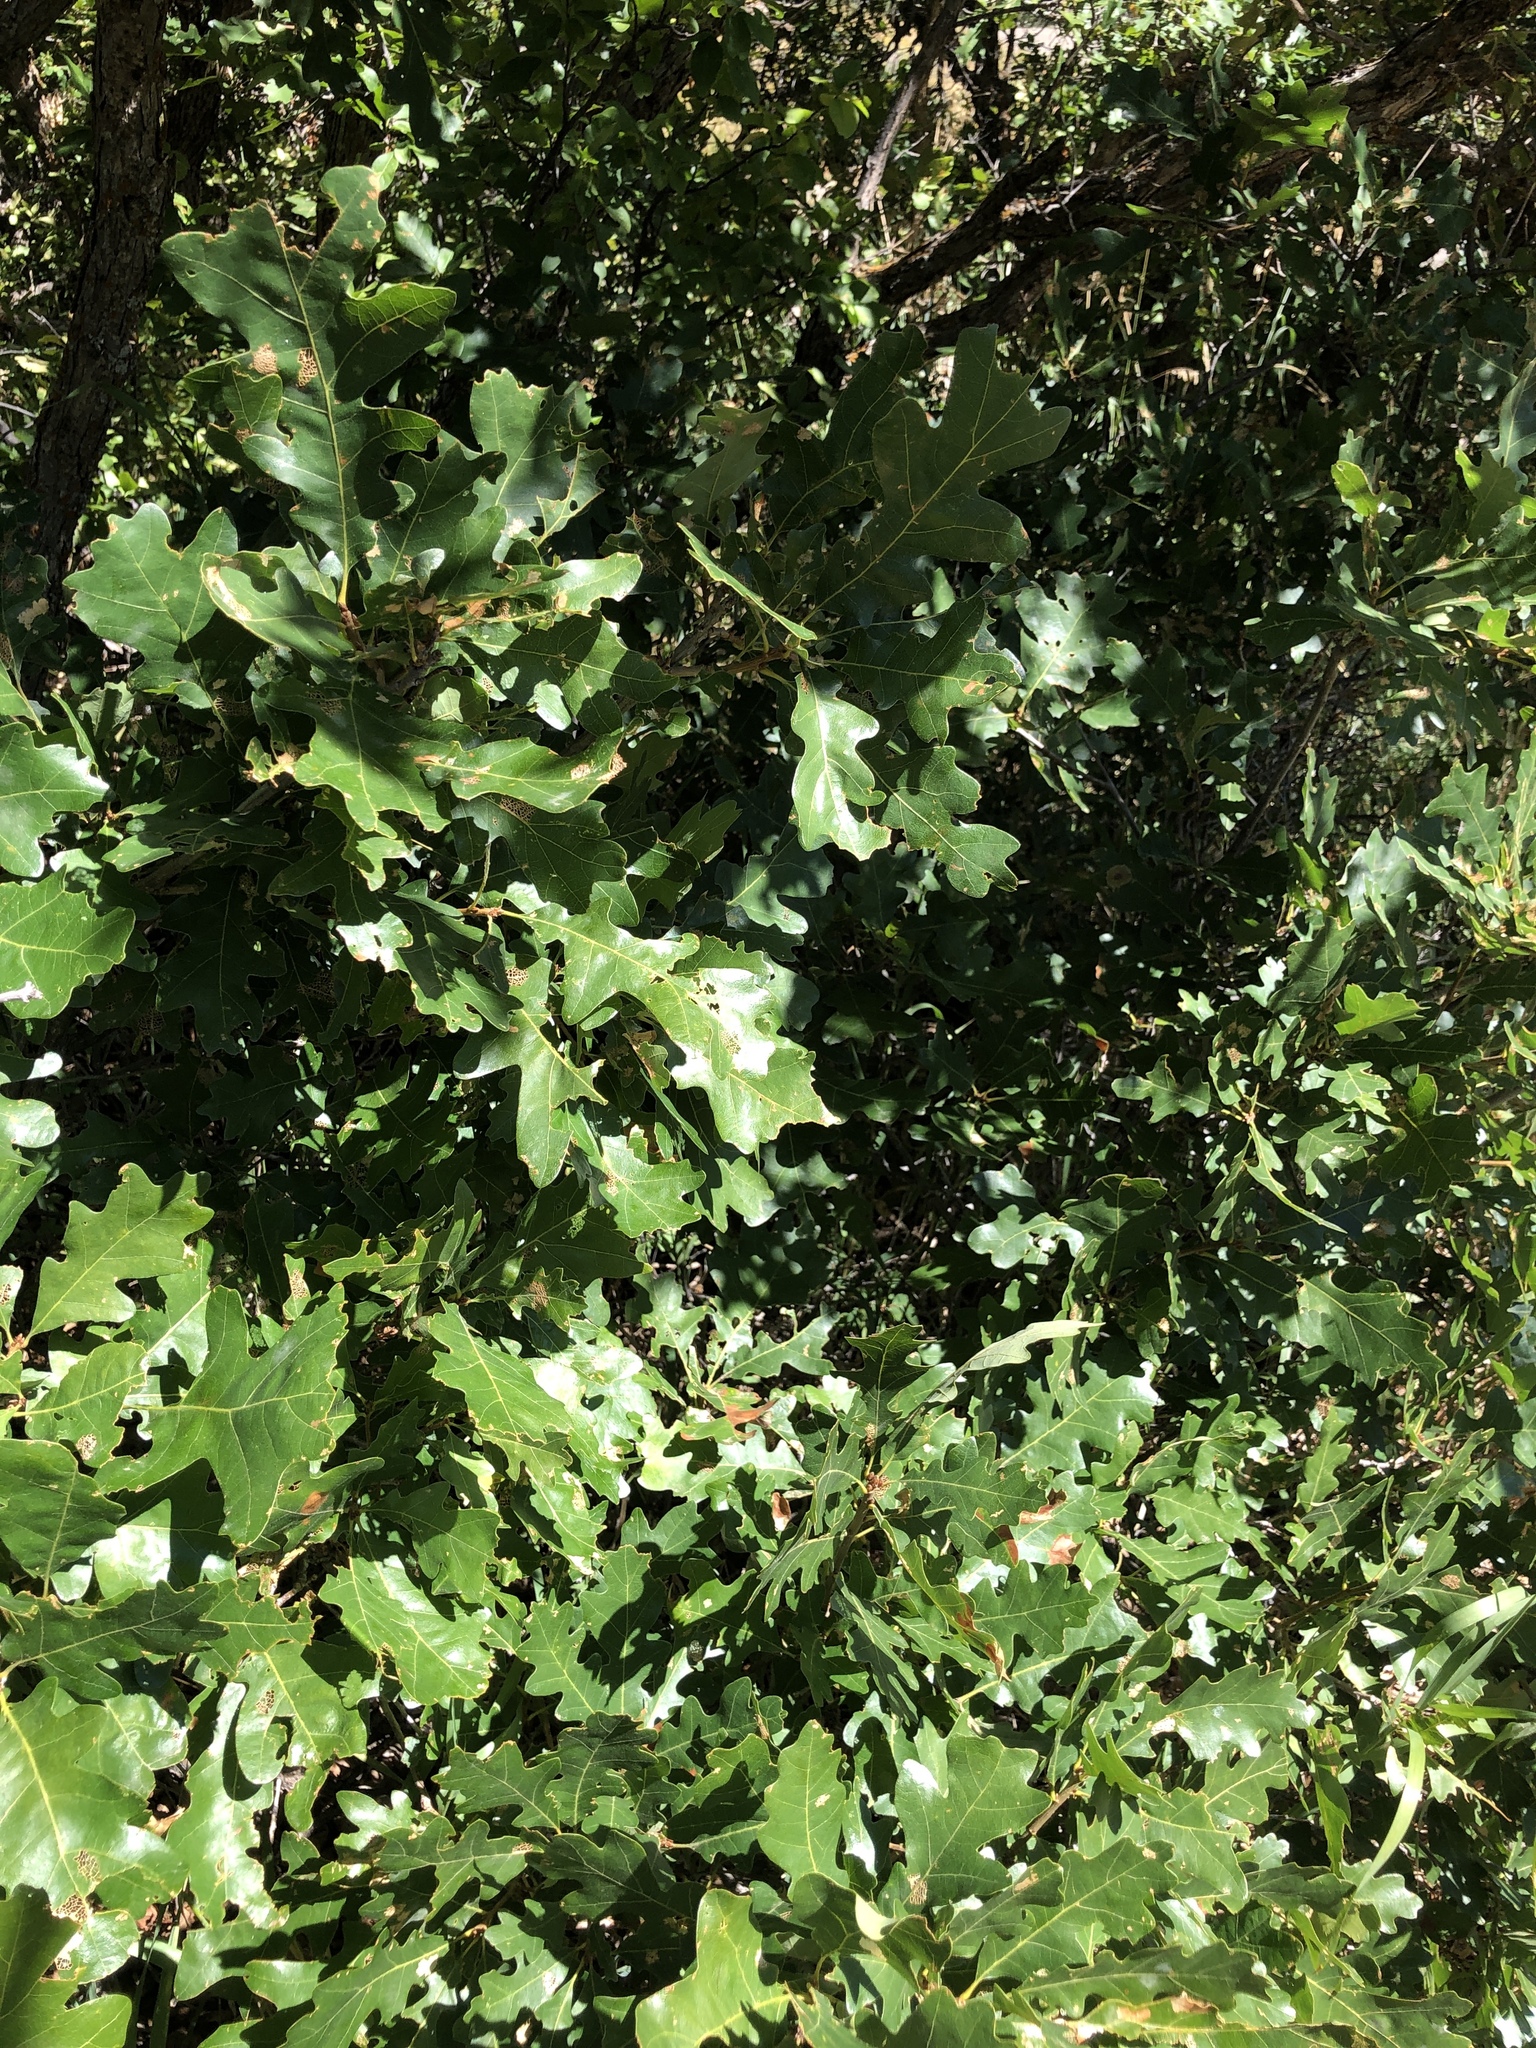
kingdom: Plantae
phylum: Tracheophyta
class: Magnoliopsida
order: Fagales
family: Fagaceae
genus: Quercus
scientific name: Quercus gambelii
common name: Gambel oak
